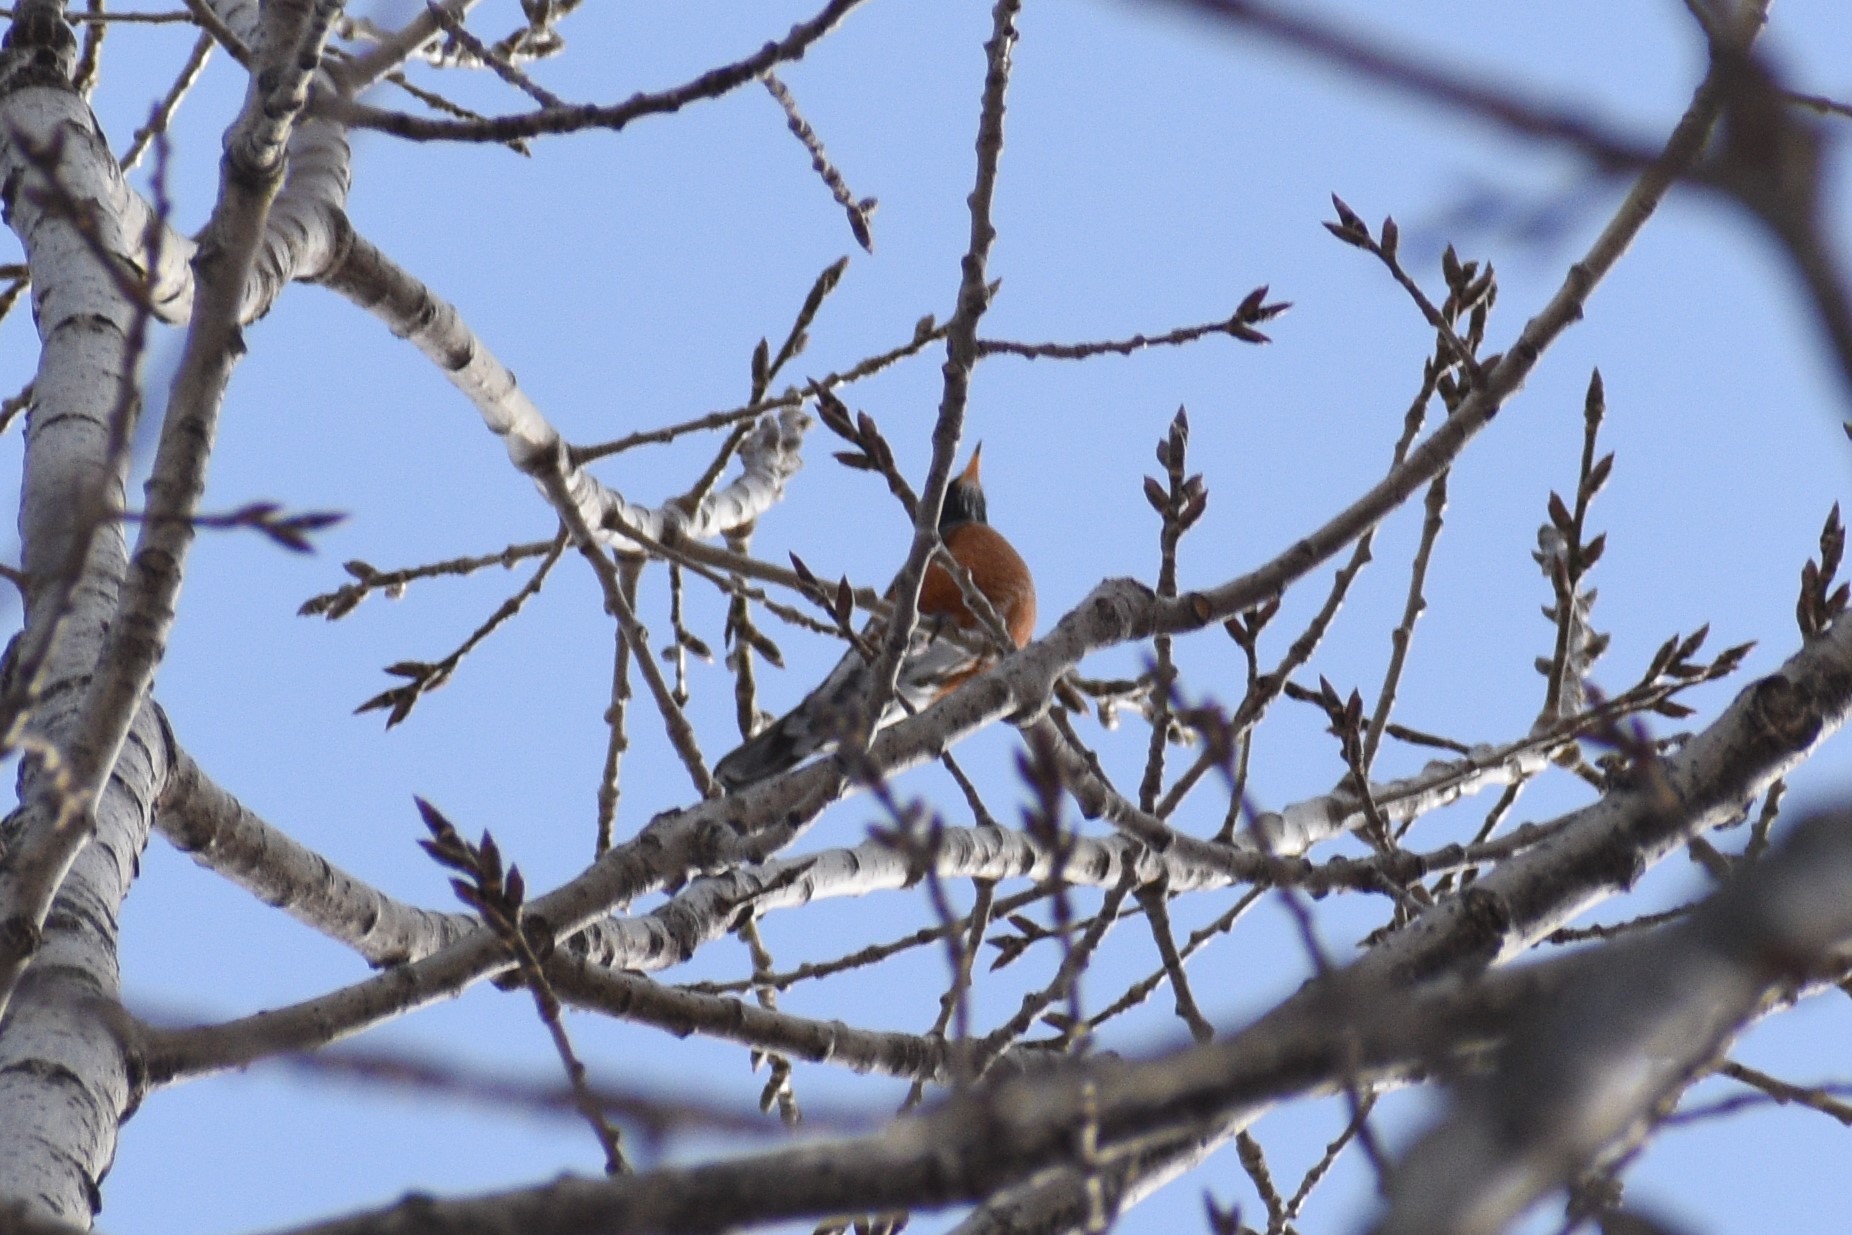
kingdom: Animalia
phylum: Chordata
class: Aves
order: Passeriformes
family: Turdidae
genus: Turdus
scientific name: Turdus migratorius
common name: American robin
